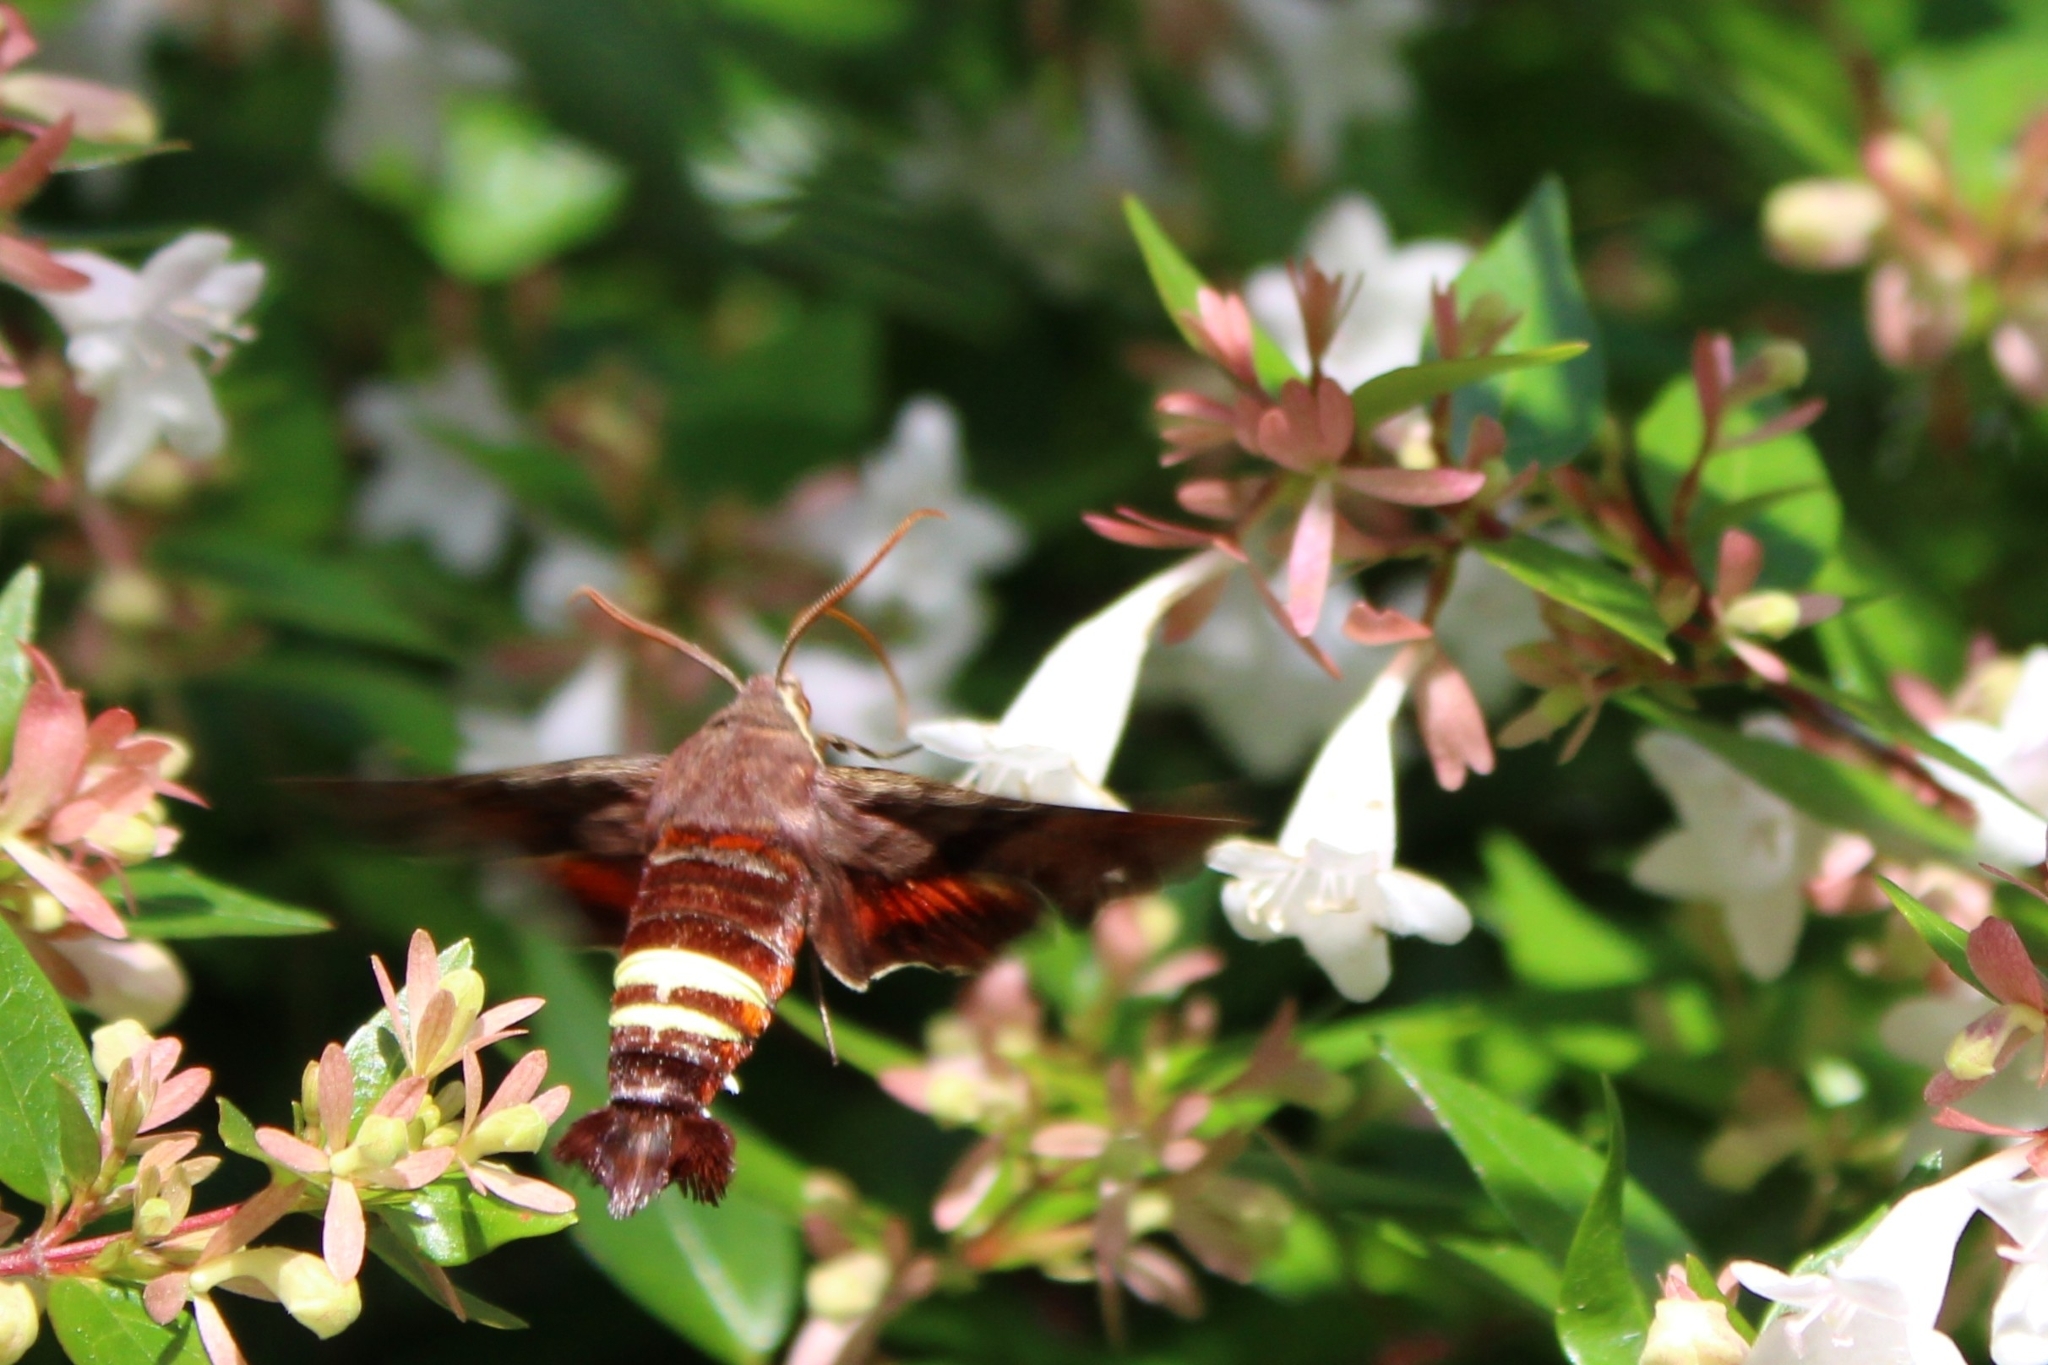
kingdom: Animalia
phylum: Arthropoda
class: Insecta
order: Lepidoptera
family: Sphingidae
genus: Amphion
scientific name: Amphion floridensis
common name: Nessus sphinx
